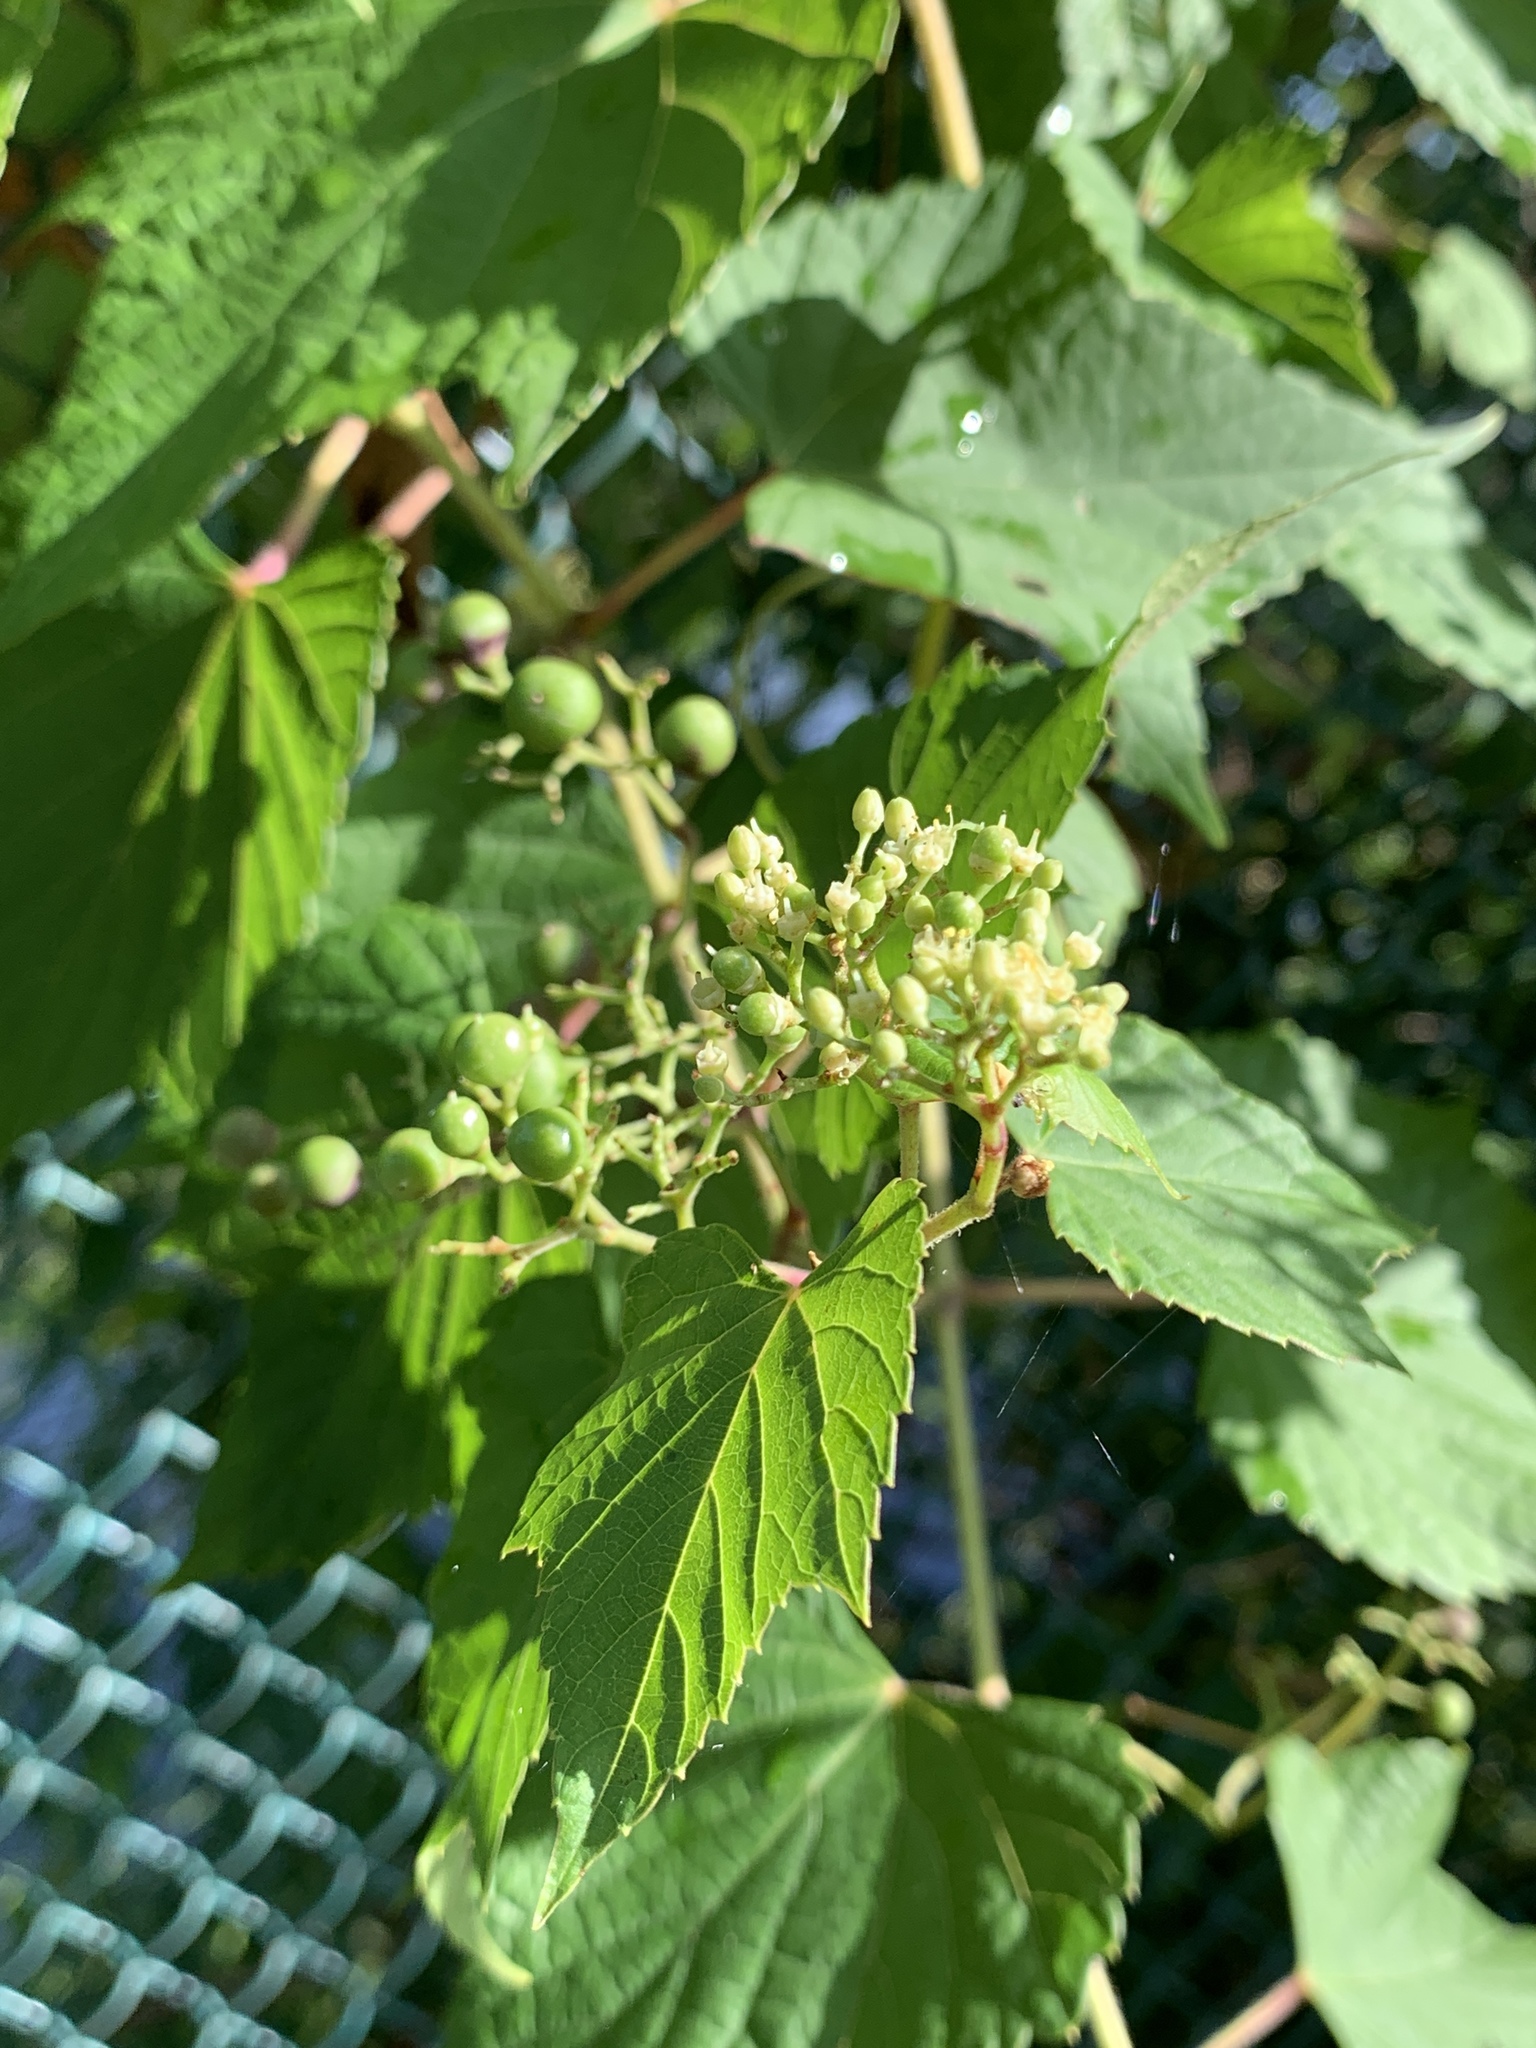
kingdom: Plantae
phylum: Tracheophyta
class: Magnoliopsida
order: Vitales
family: Vitaceae
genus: Ampelopsis
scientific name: Ampelopsis glandulosa
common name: Amur peppervine
